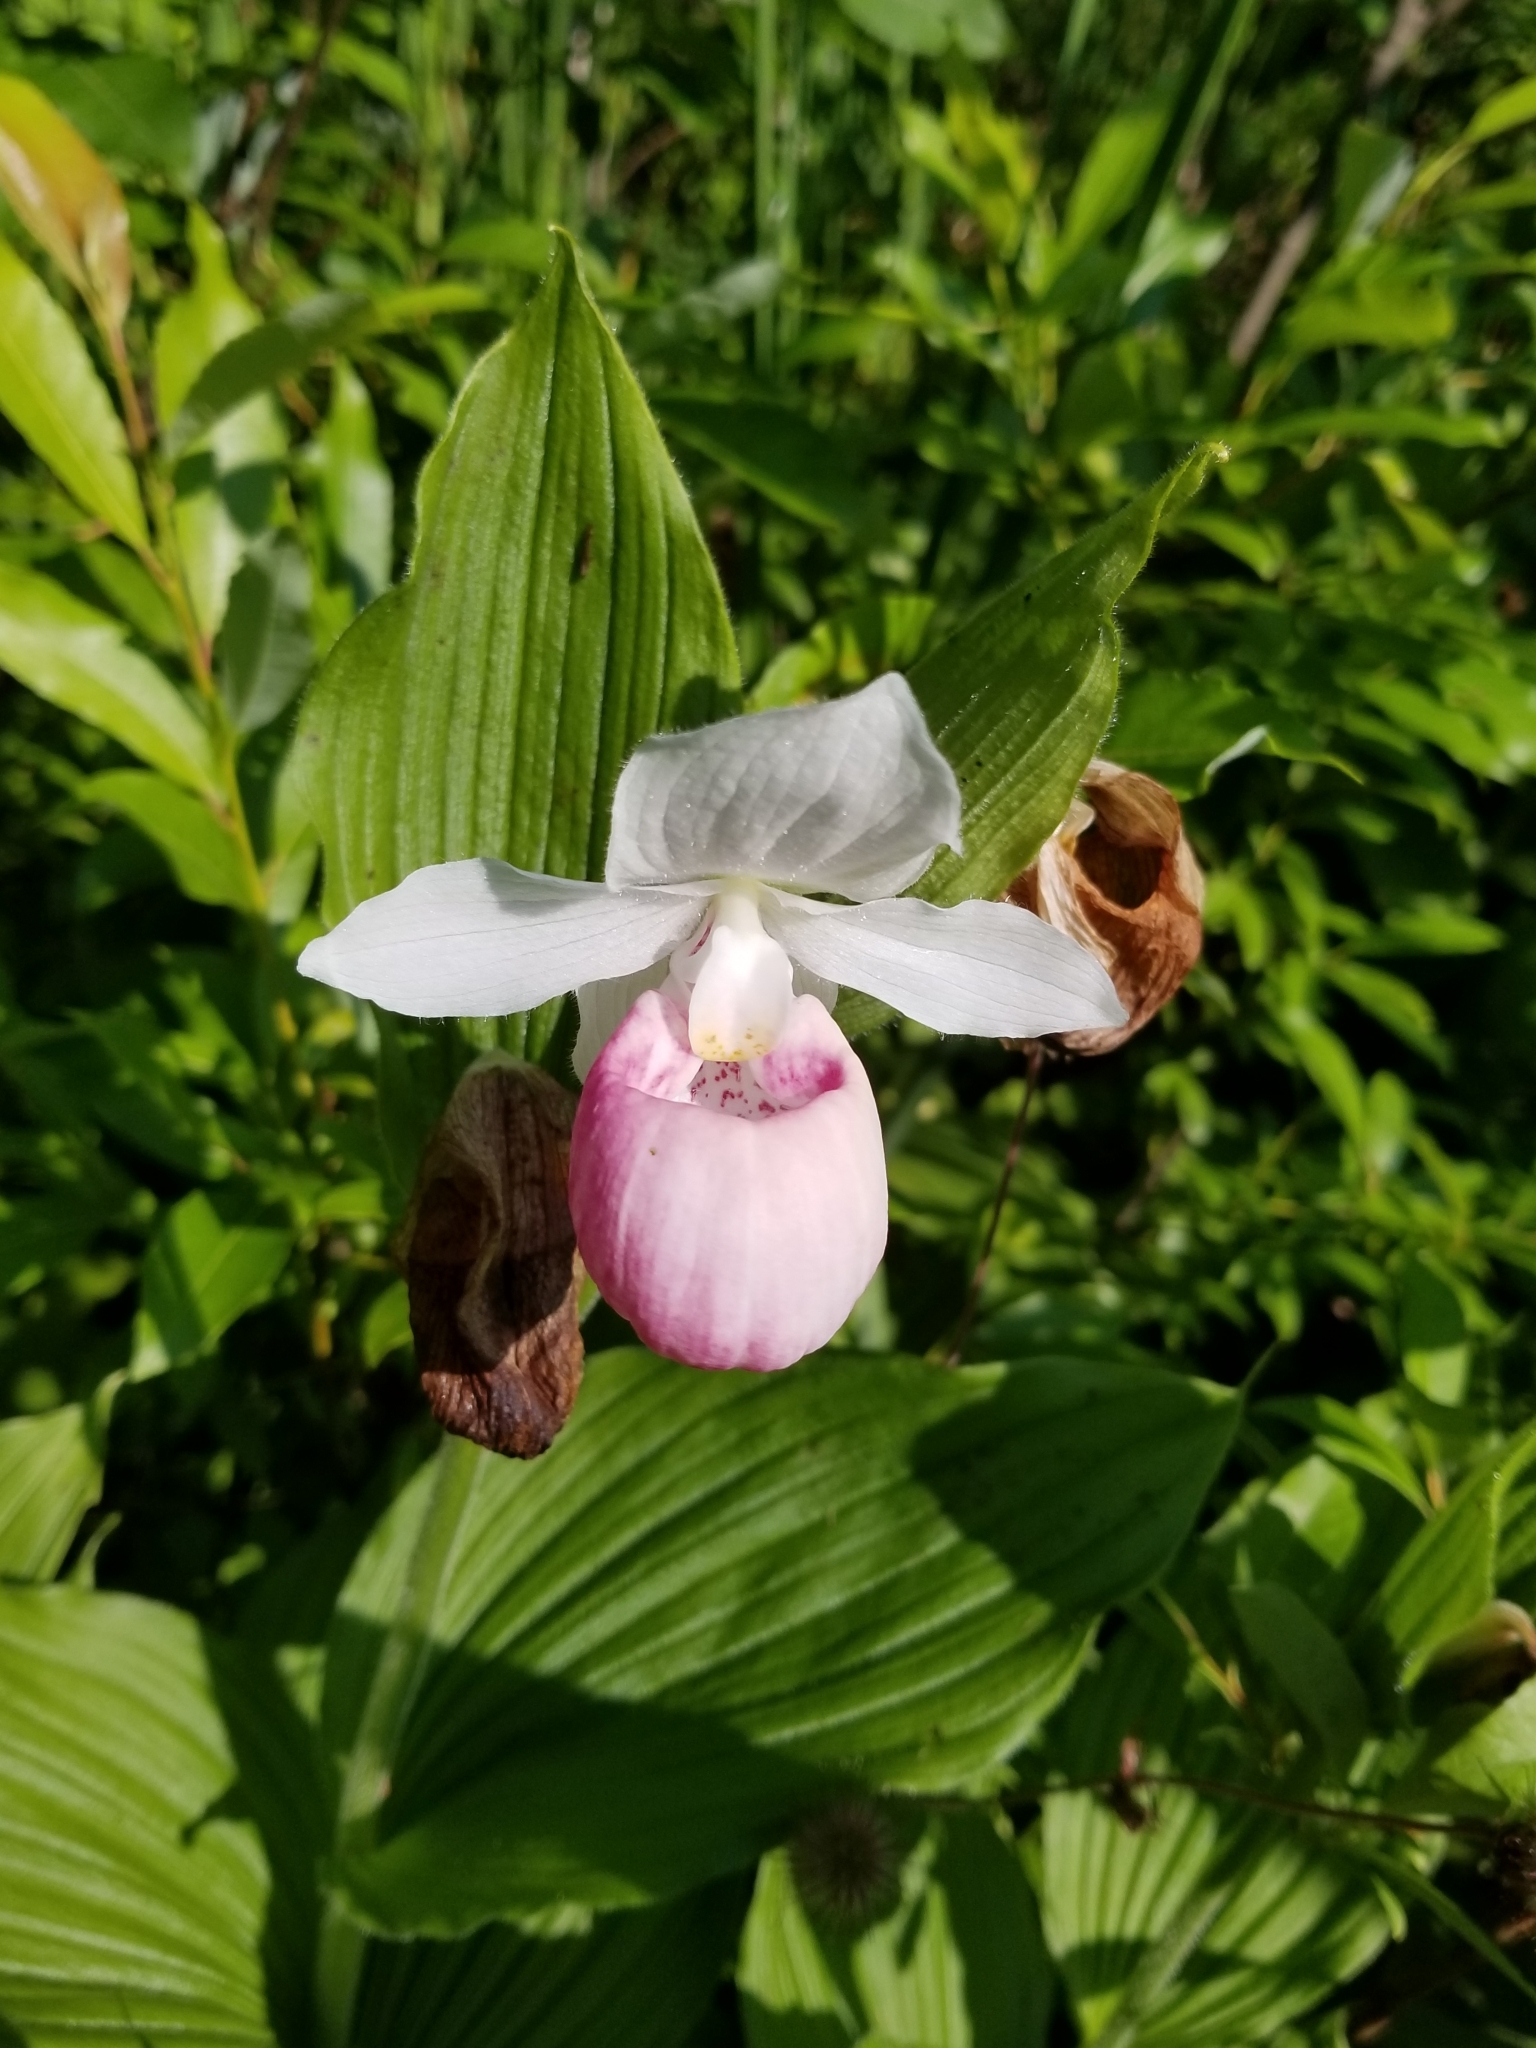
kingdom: Plantae
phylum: Tracheophyta
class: Liliopsida
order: Asparagales
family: Orchidaceae
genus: Cypripedium
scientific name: Cypripedium reginae
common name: Queen lady's-slipper
